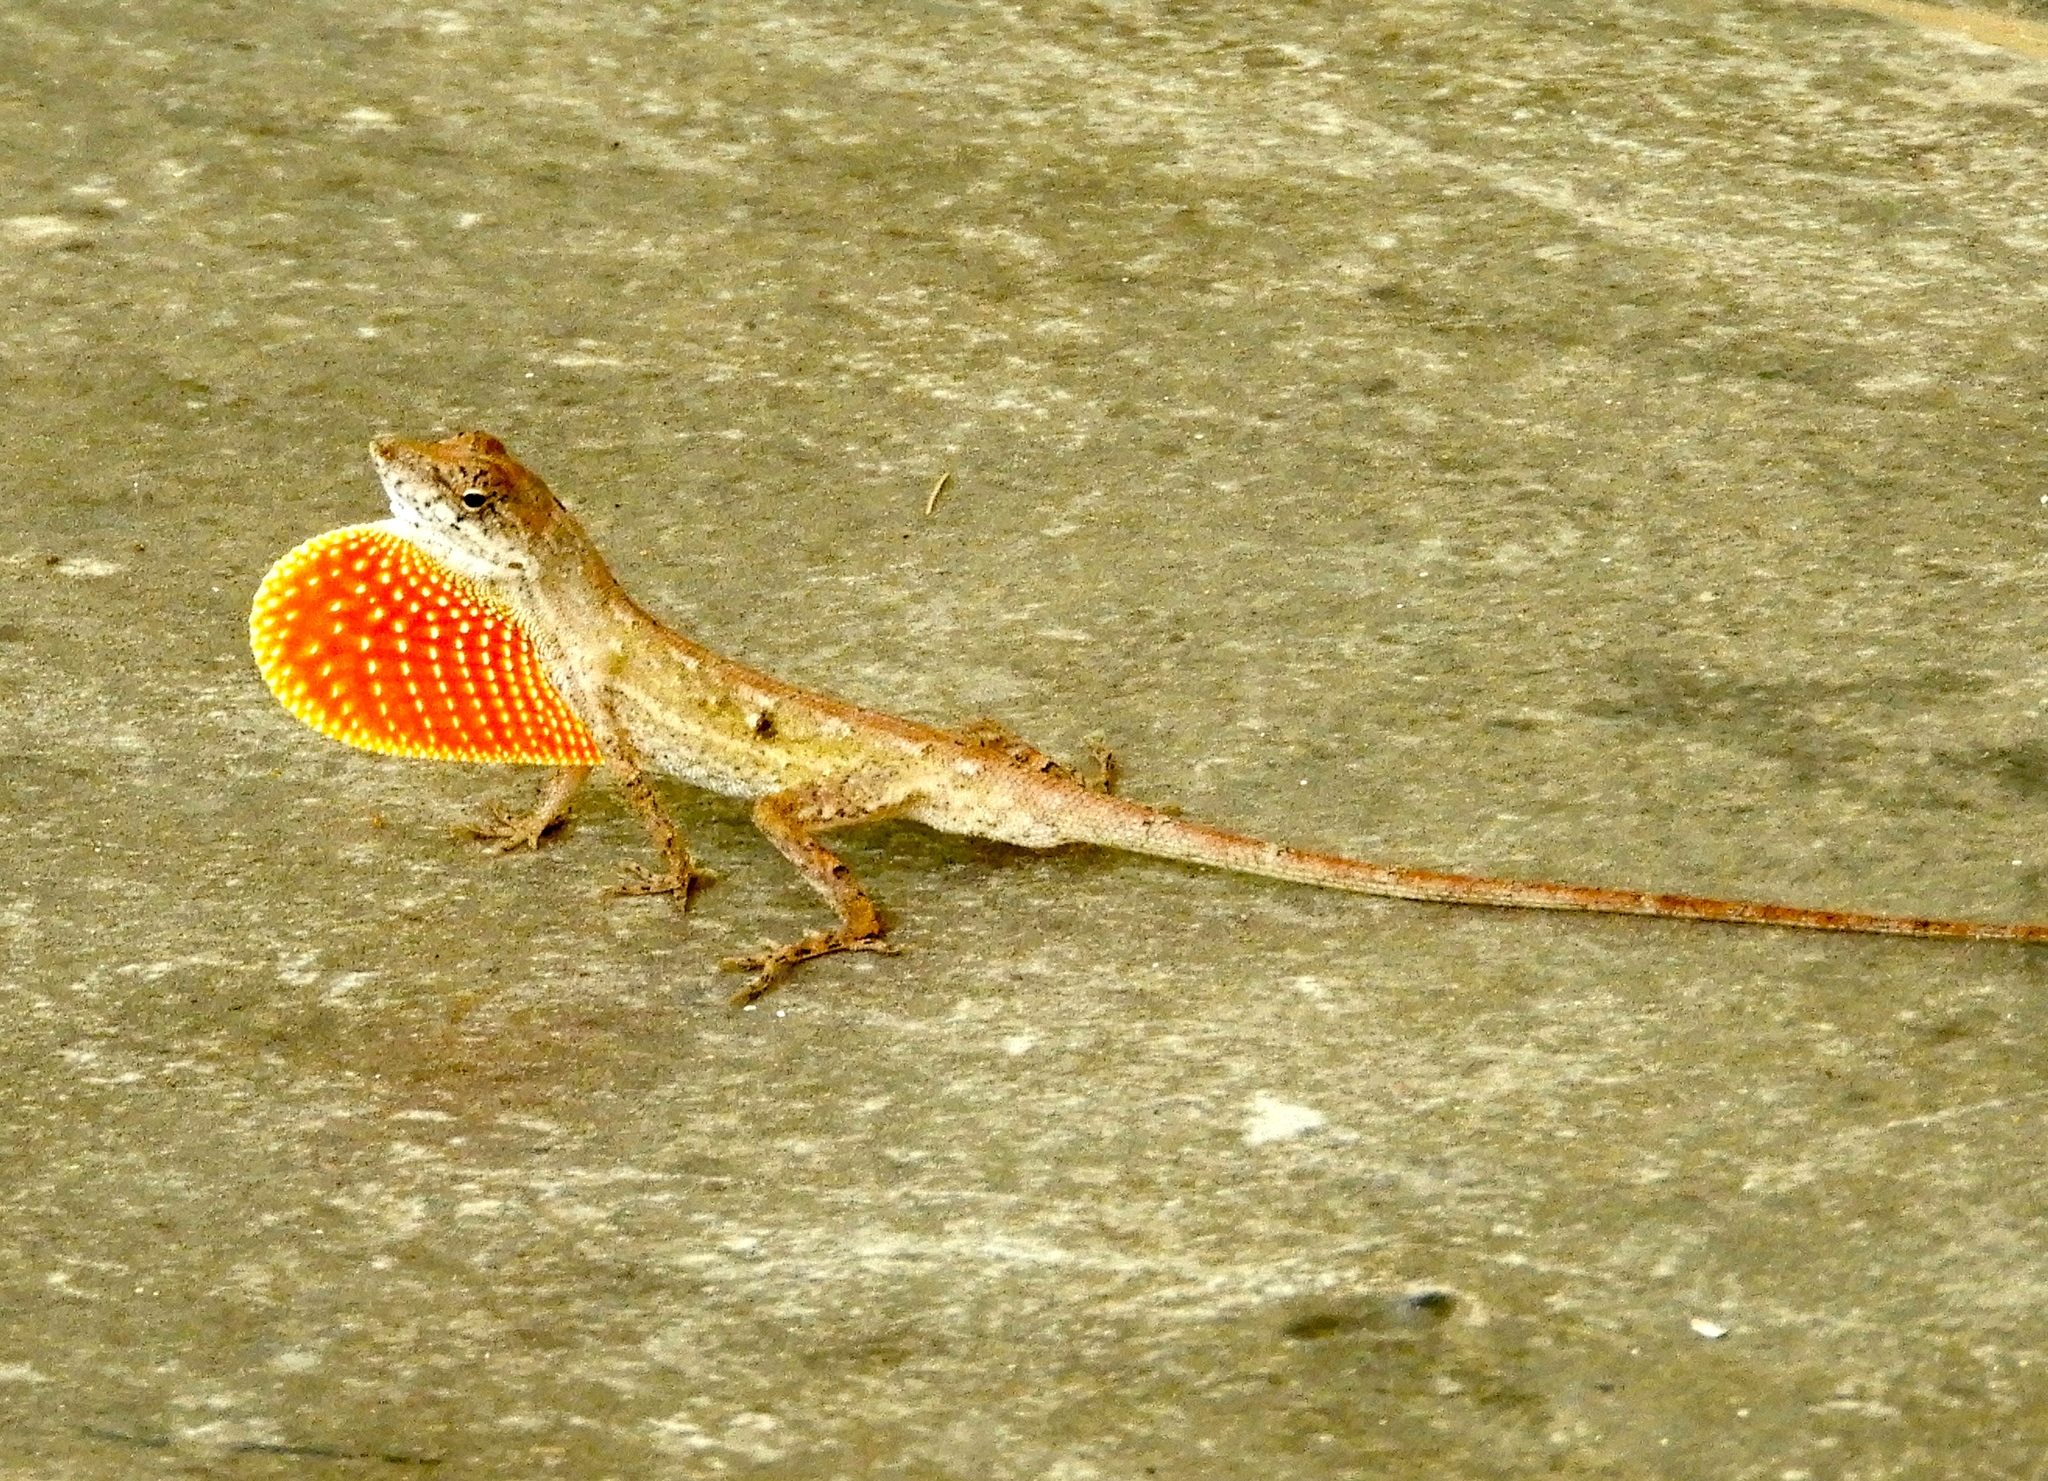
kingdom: Animalia
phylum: Chordata
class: Squamata
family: Dactyloidae
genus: Anolis
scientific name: Anolis nebulosus
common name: Clouded anole
